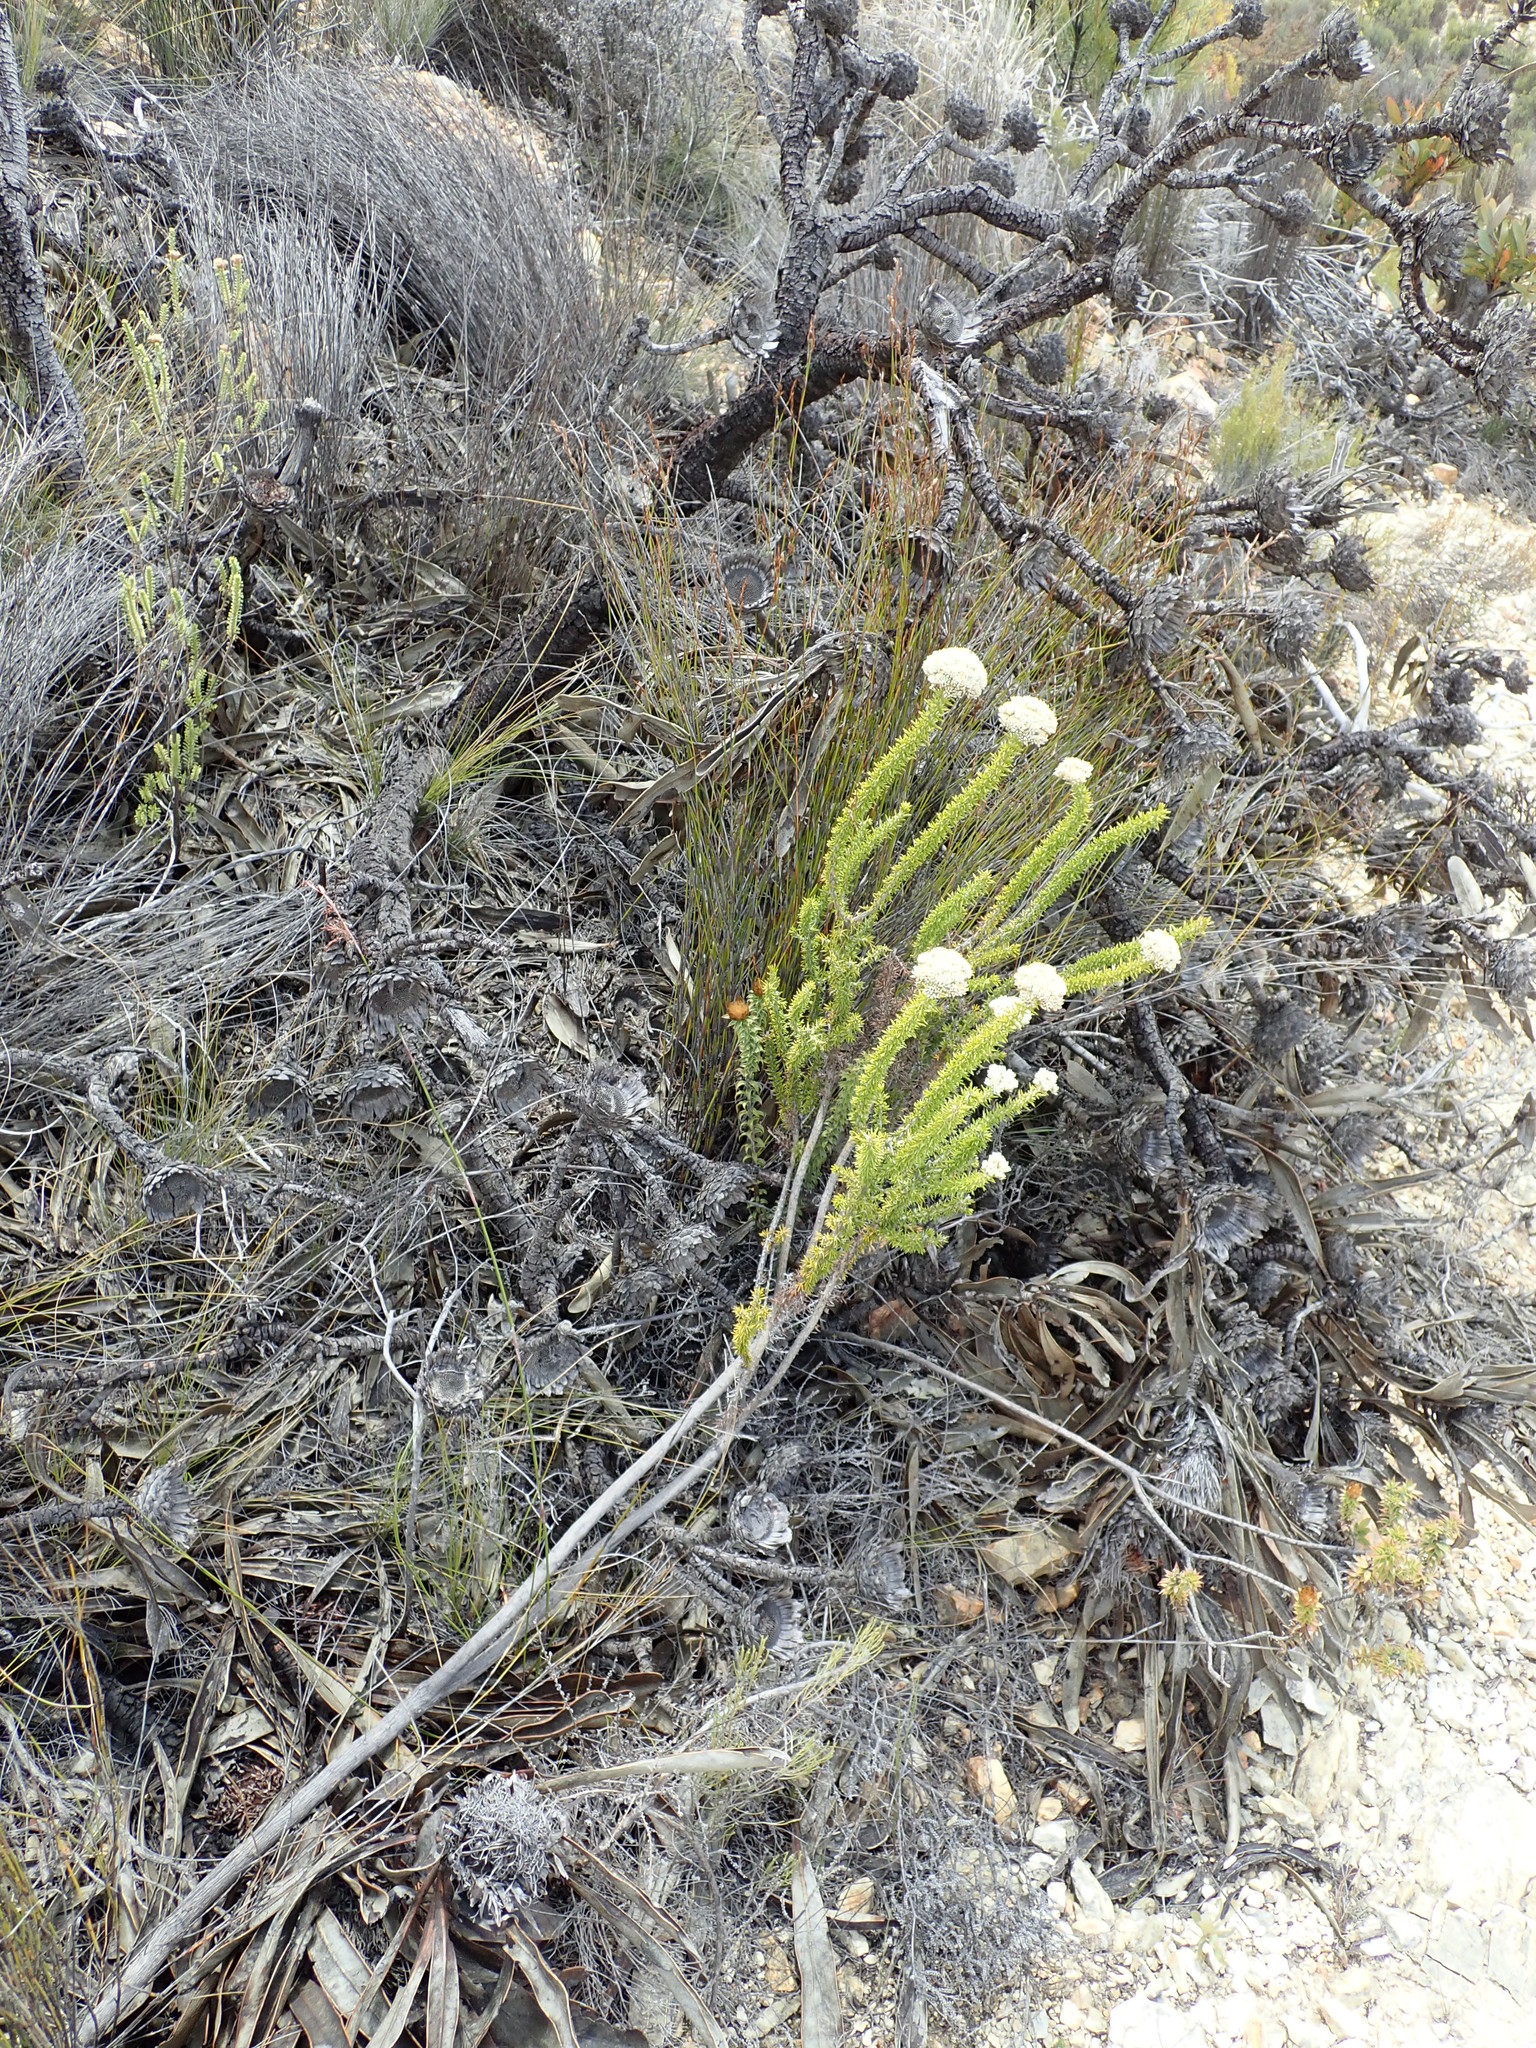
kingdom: Plantae
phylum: Tracheophyta
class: Magnoliopsida
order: Asterales
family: Asteraceae
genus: Metalasia
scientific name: Metalasia acuta
